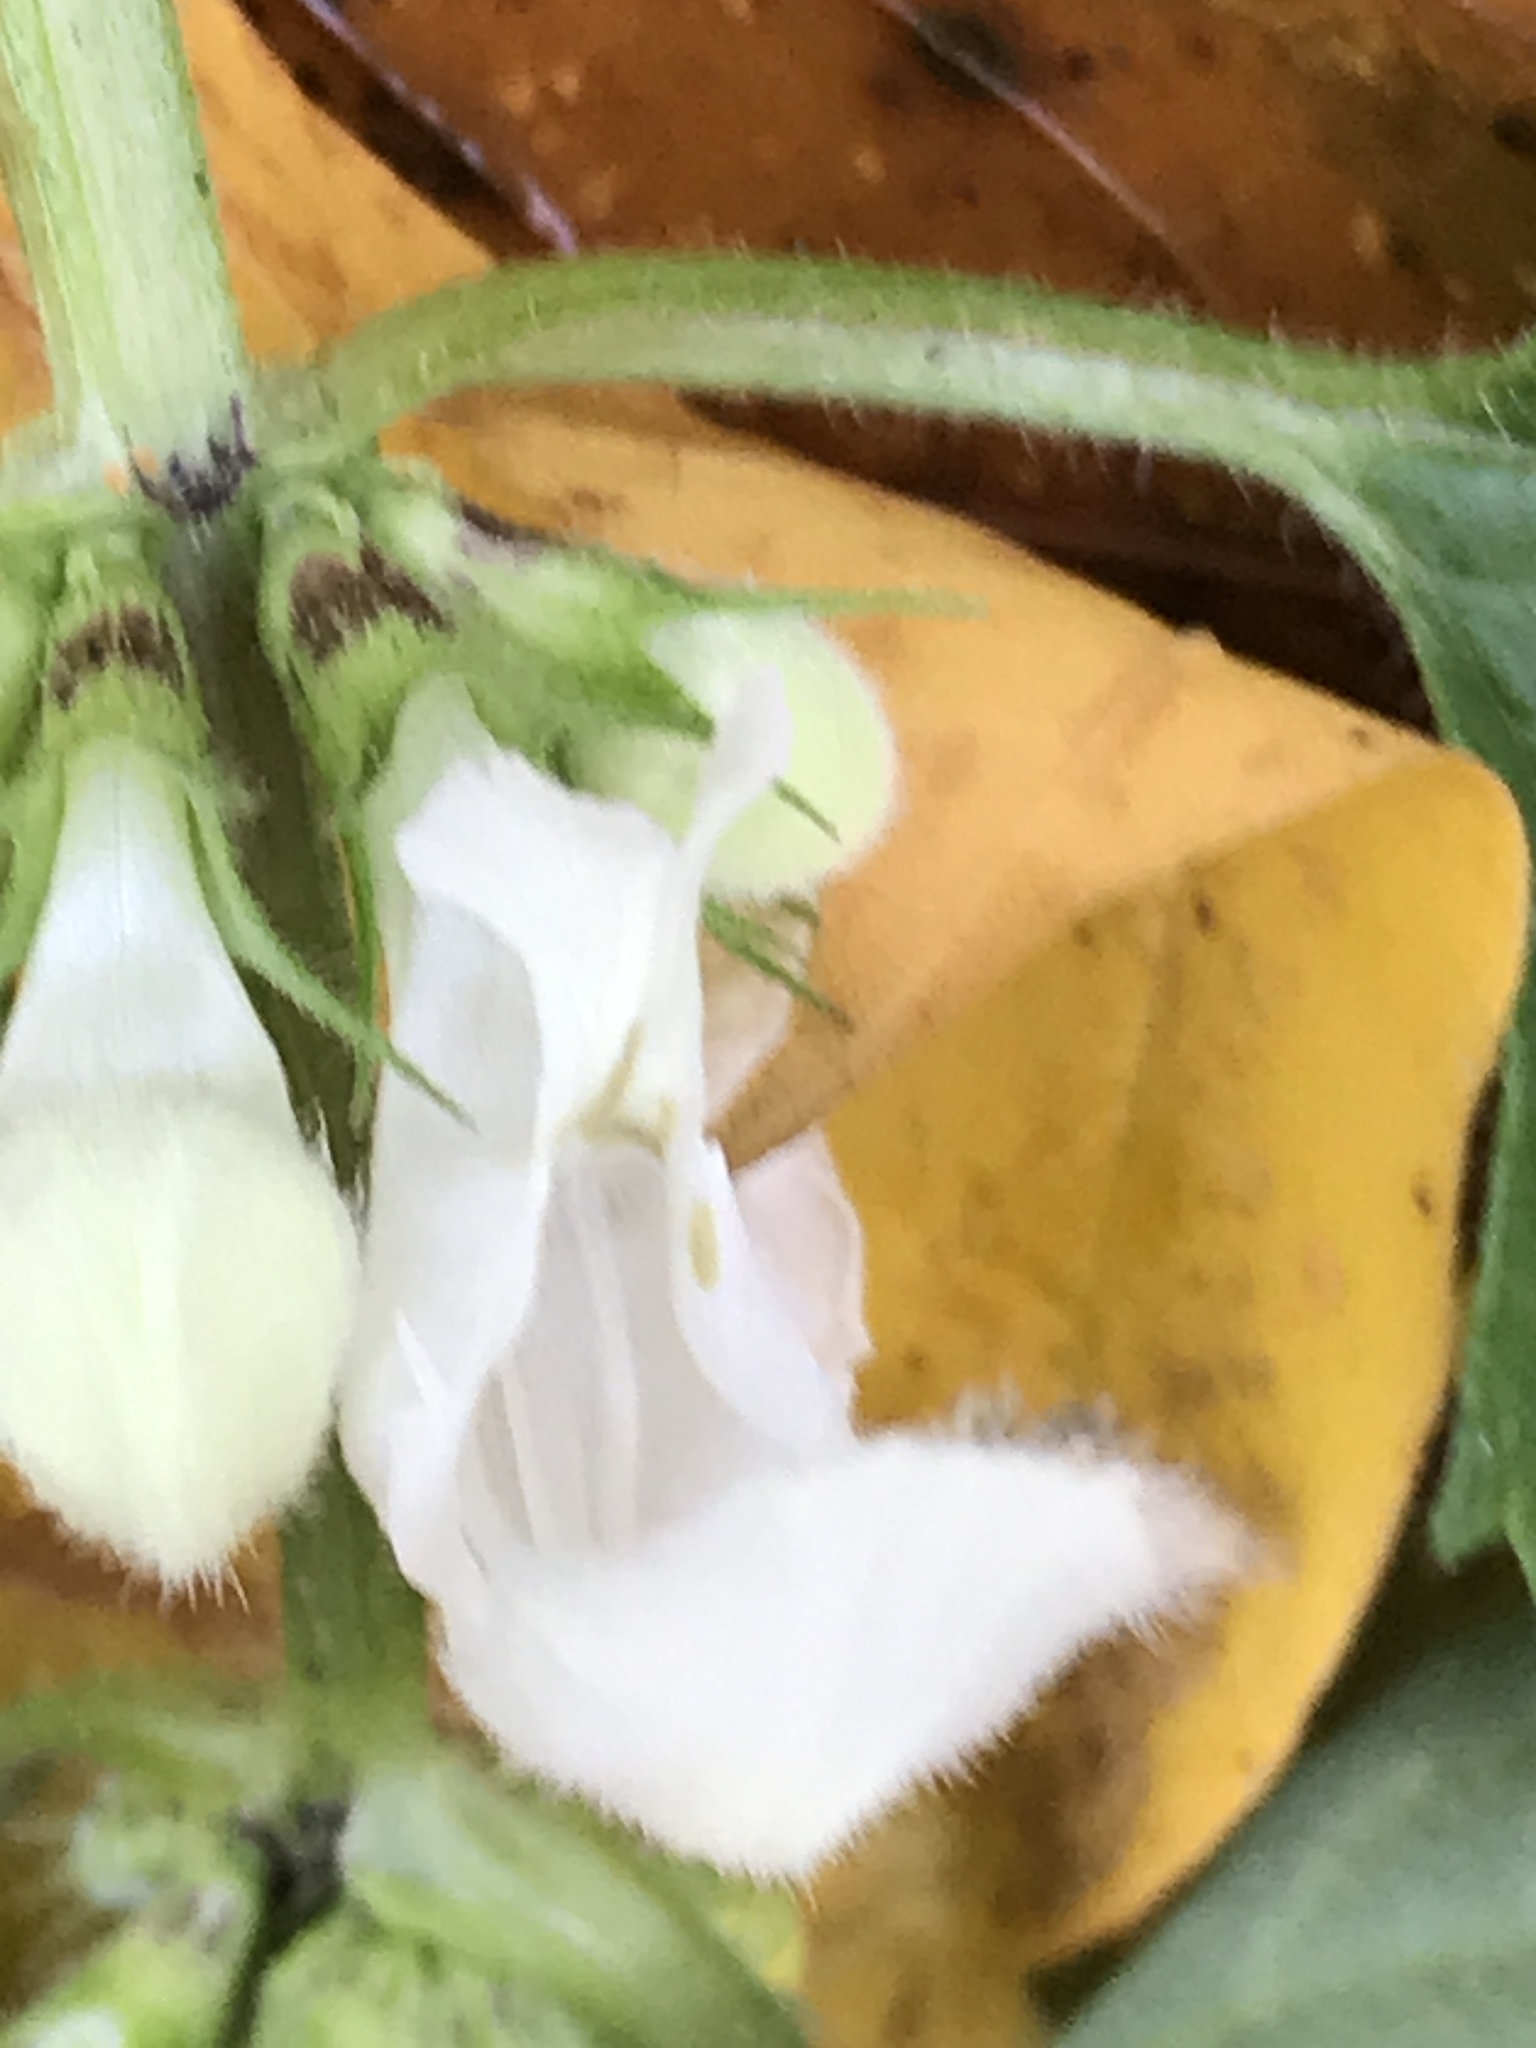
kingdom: Plantae
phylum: Tracheophyta
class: Magnoliopsida
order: Lamiales
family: Lamiaceae
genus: Lamium
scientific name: Lamium album
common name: White dead-nettle
